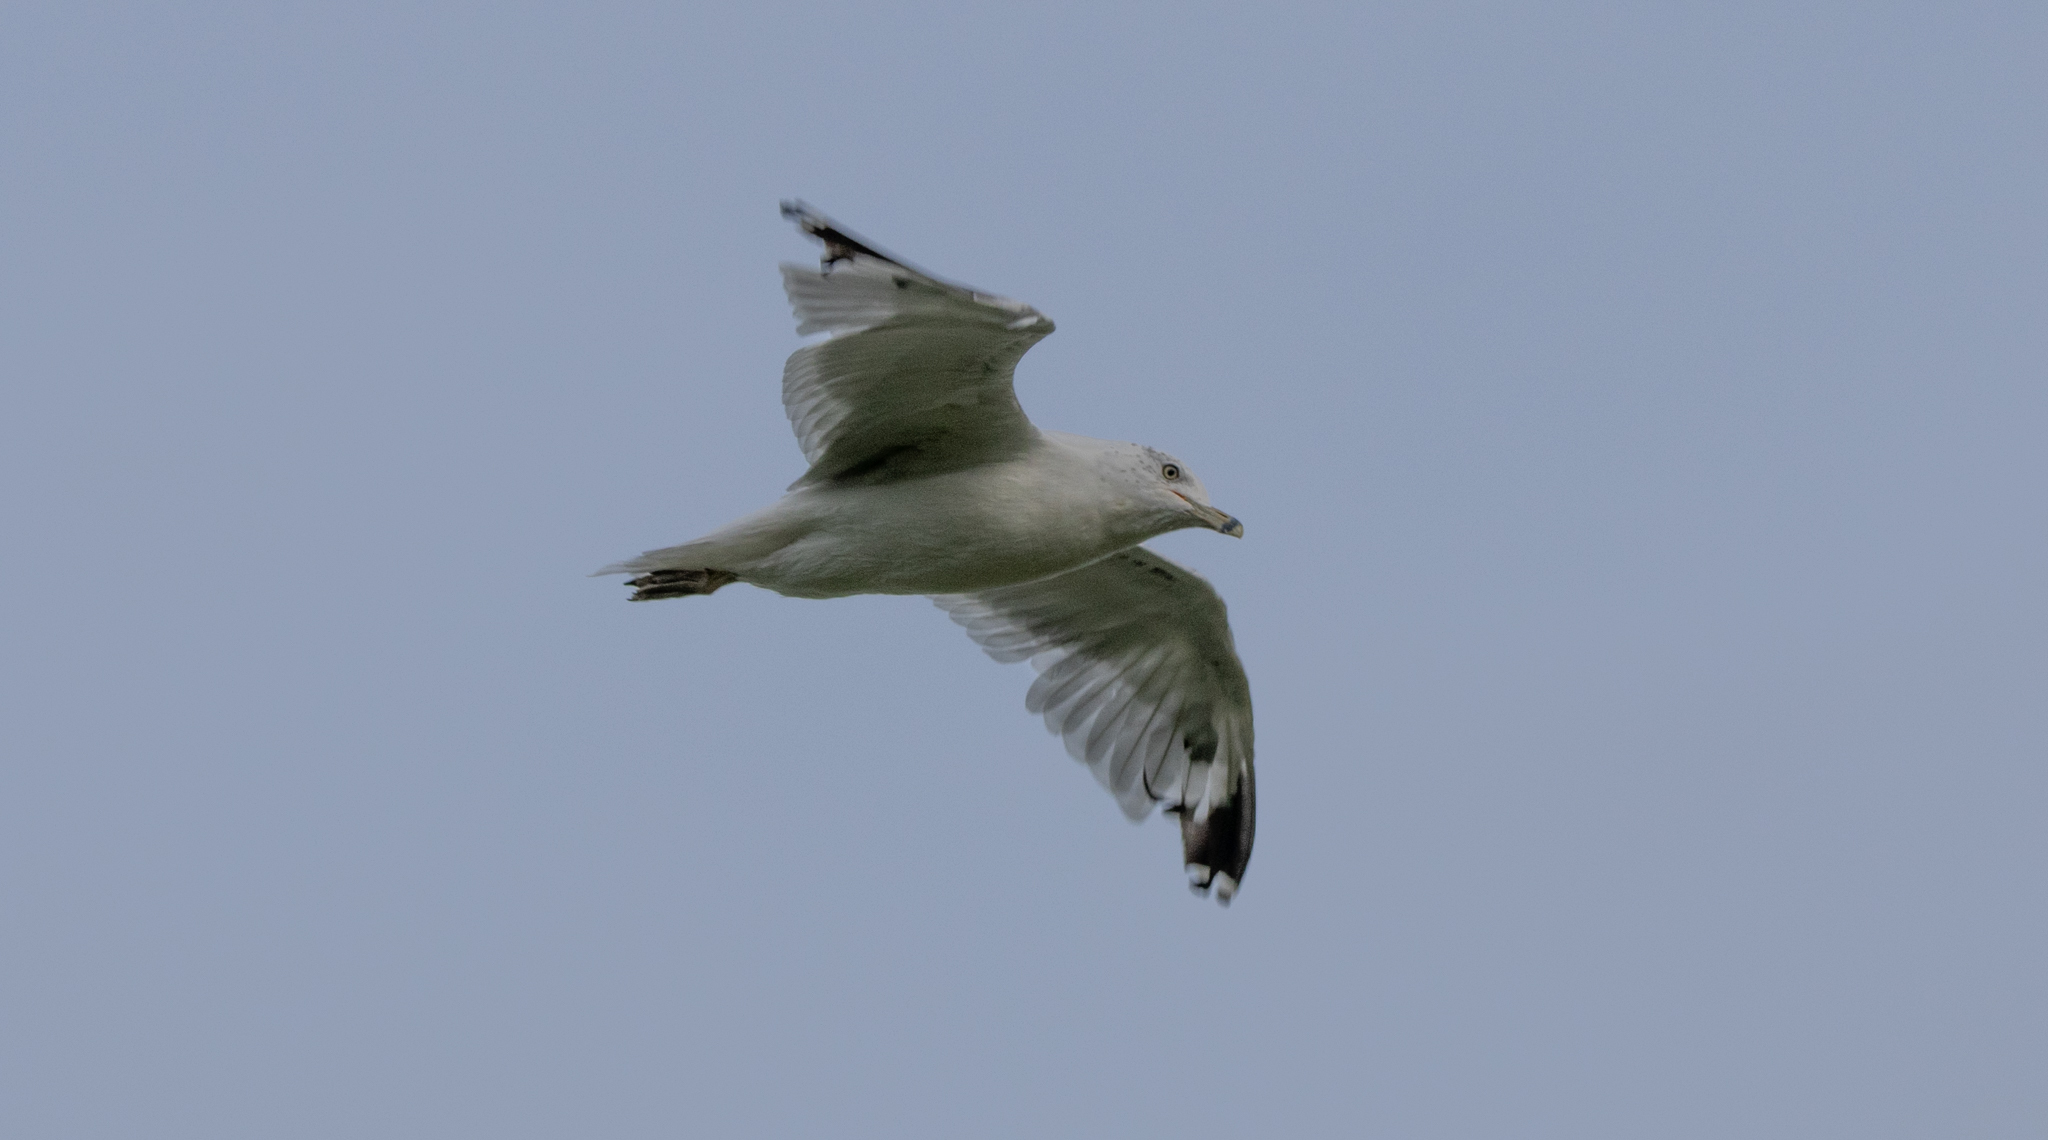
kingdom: Animalia
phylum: Chordata
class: Aves
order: Charadriiformes
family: Laridae
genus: Larus
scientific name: Larus delawarensis
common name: Ring-billed gull
